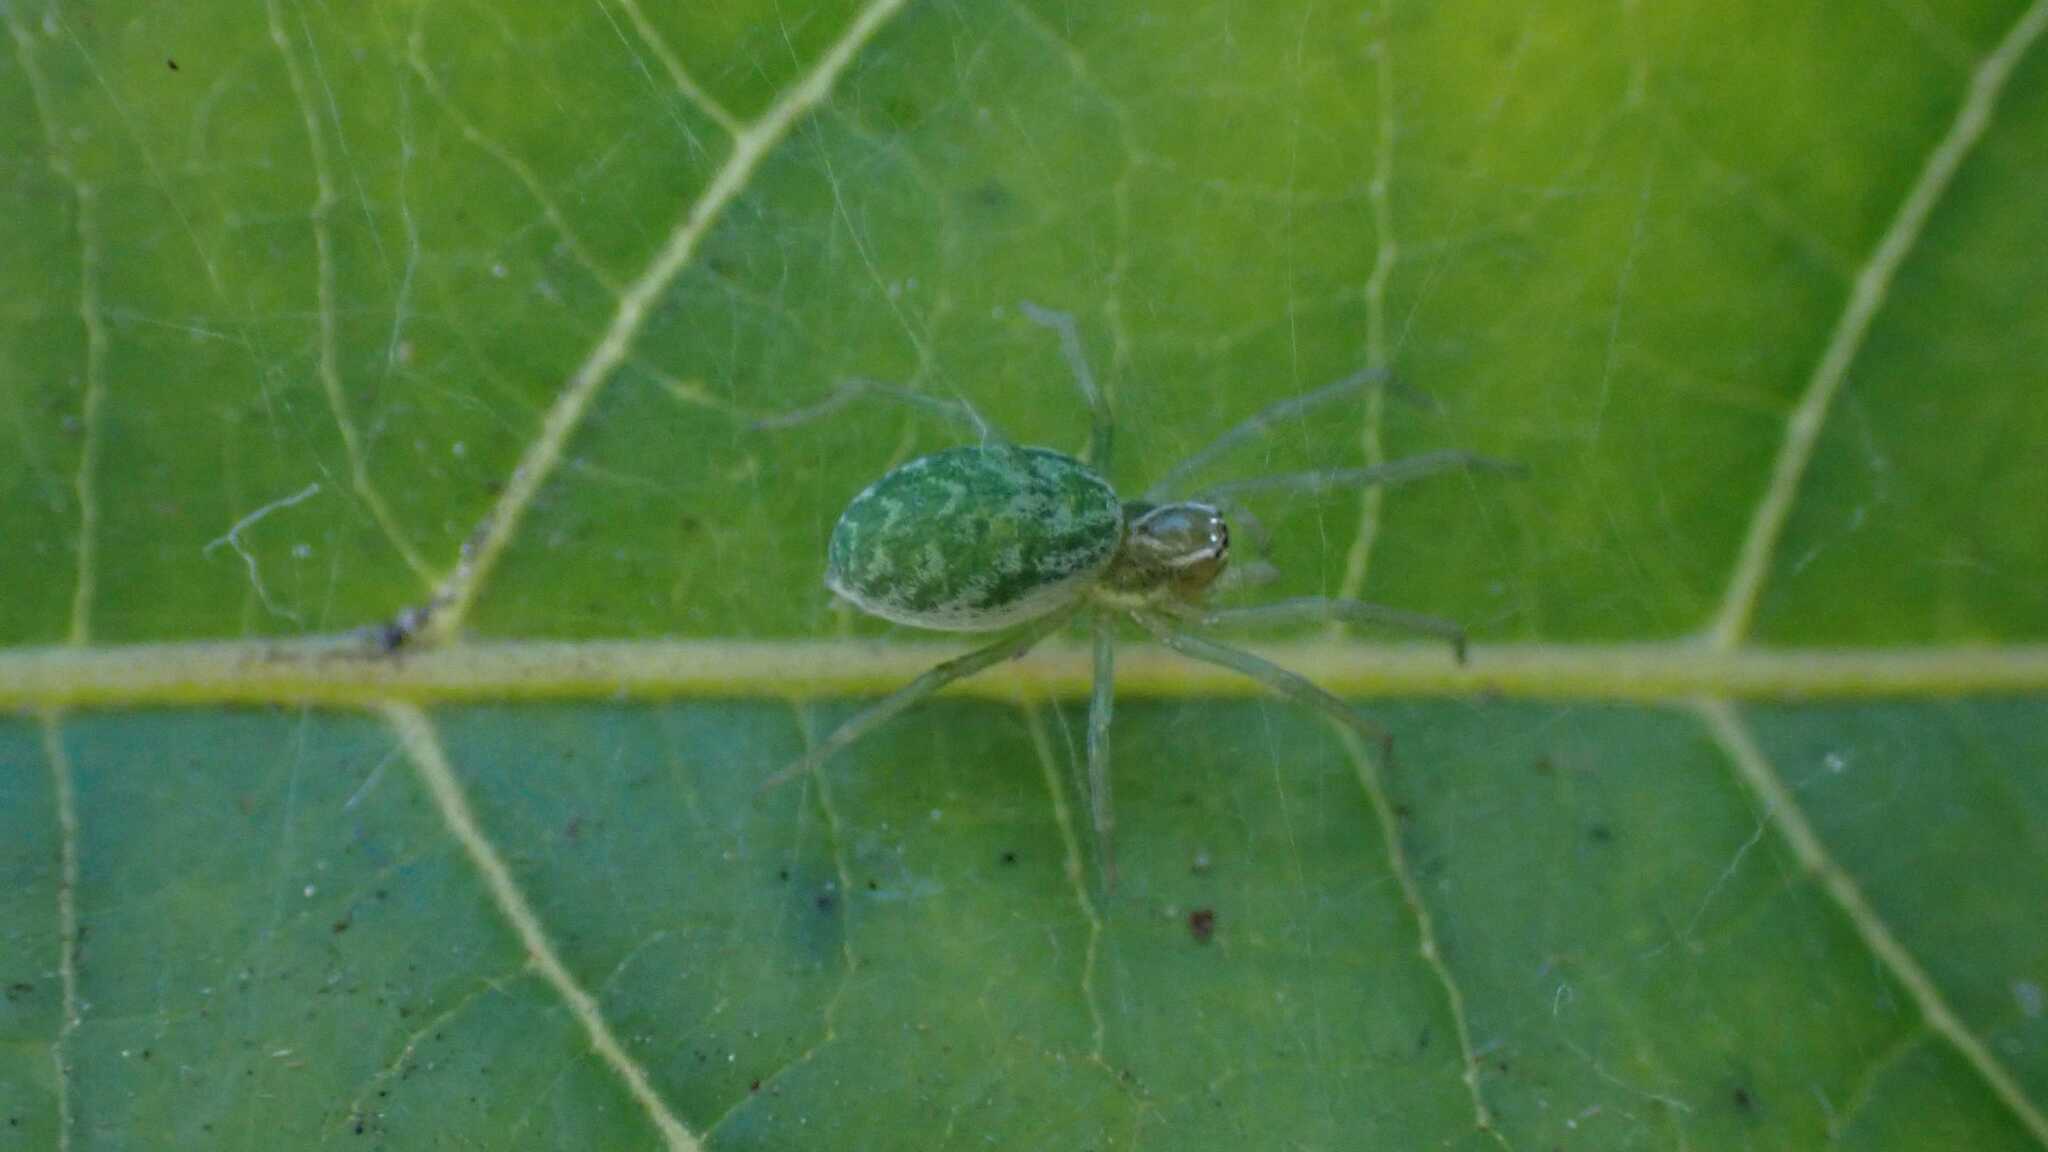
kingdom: Animalia
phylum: Arthropoda
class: Arachnida
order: Araneae
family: Dictynidae
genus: Nigma
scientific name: Nigma walckenaeri
